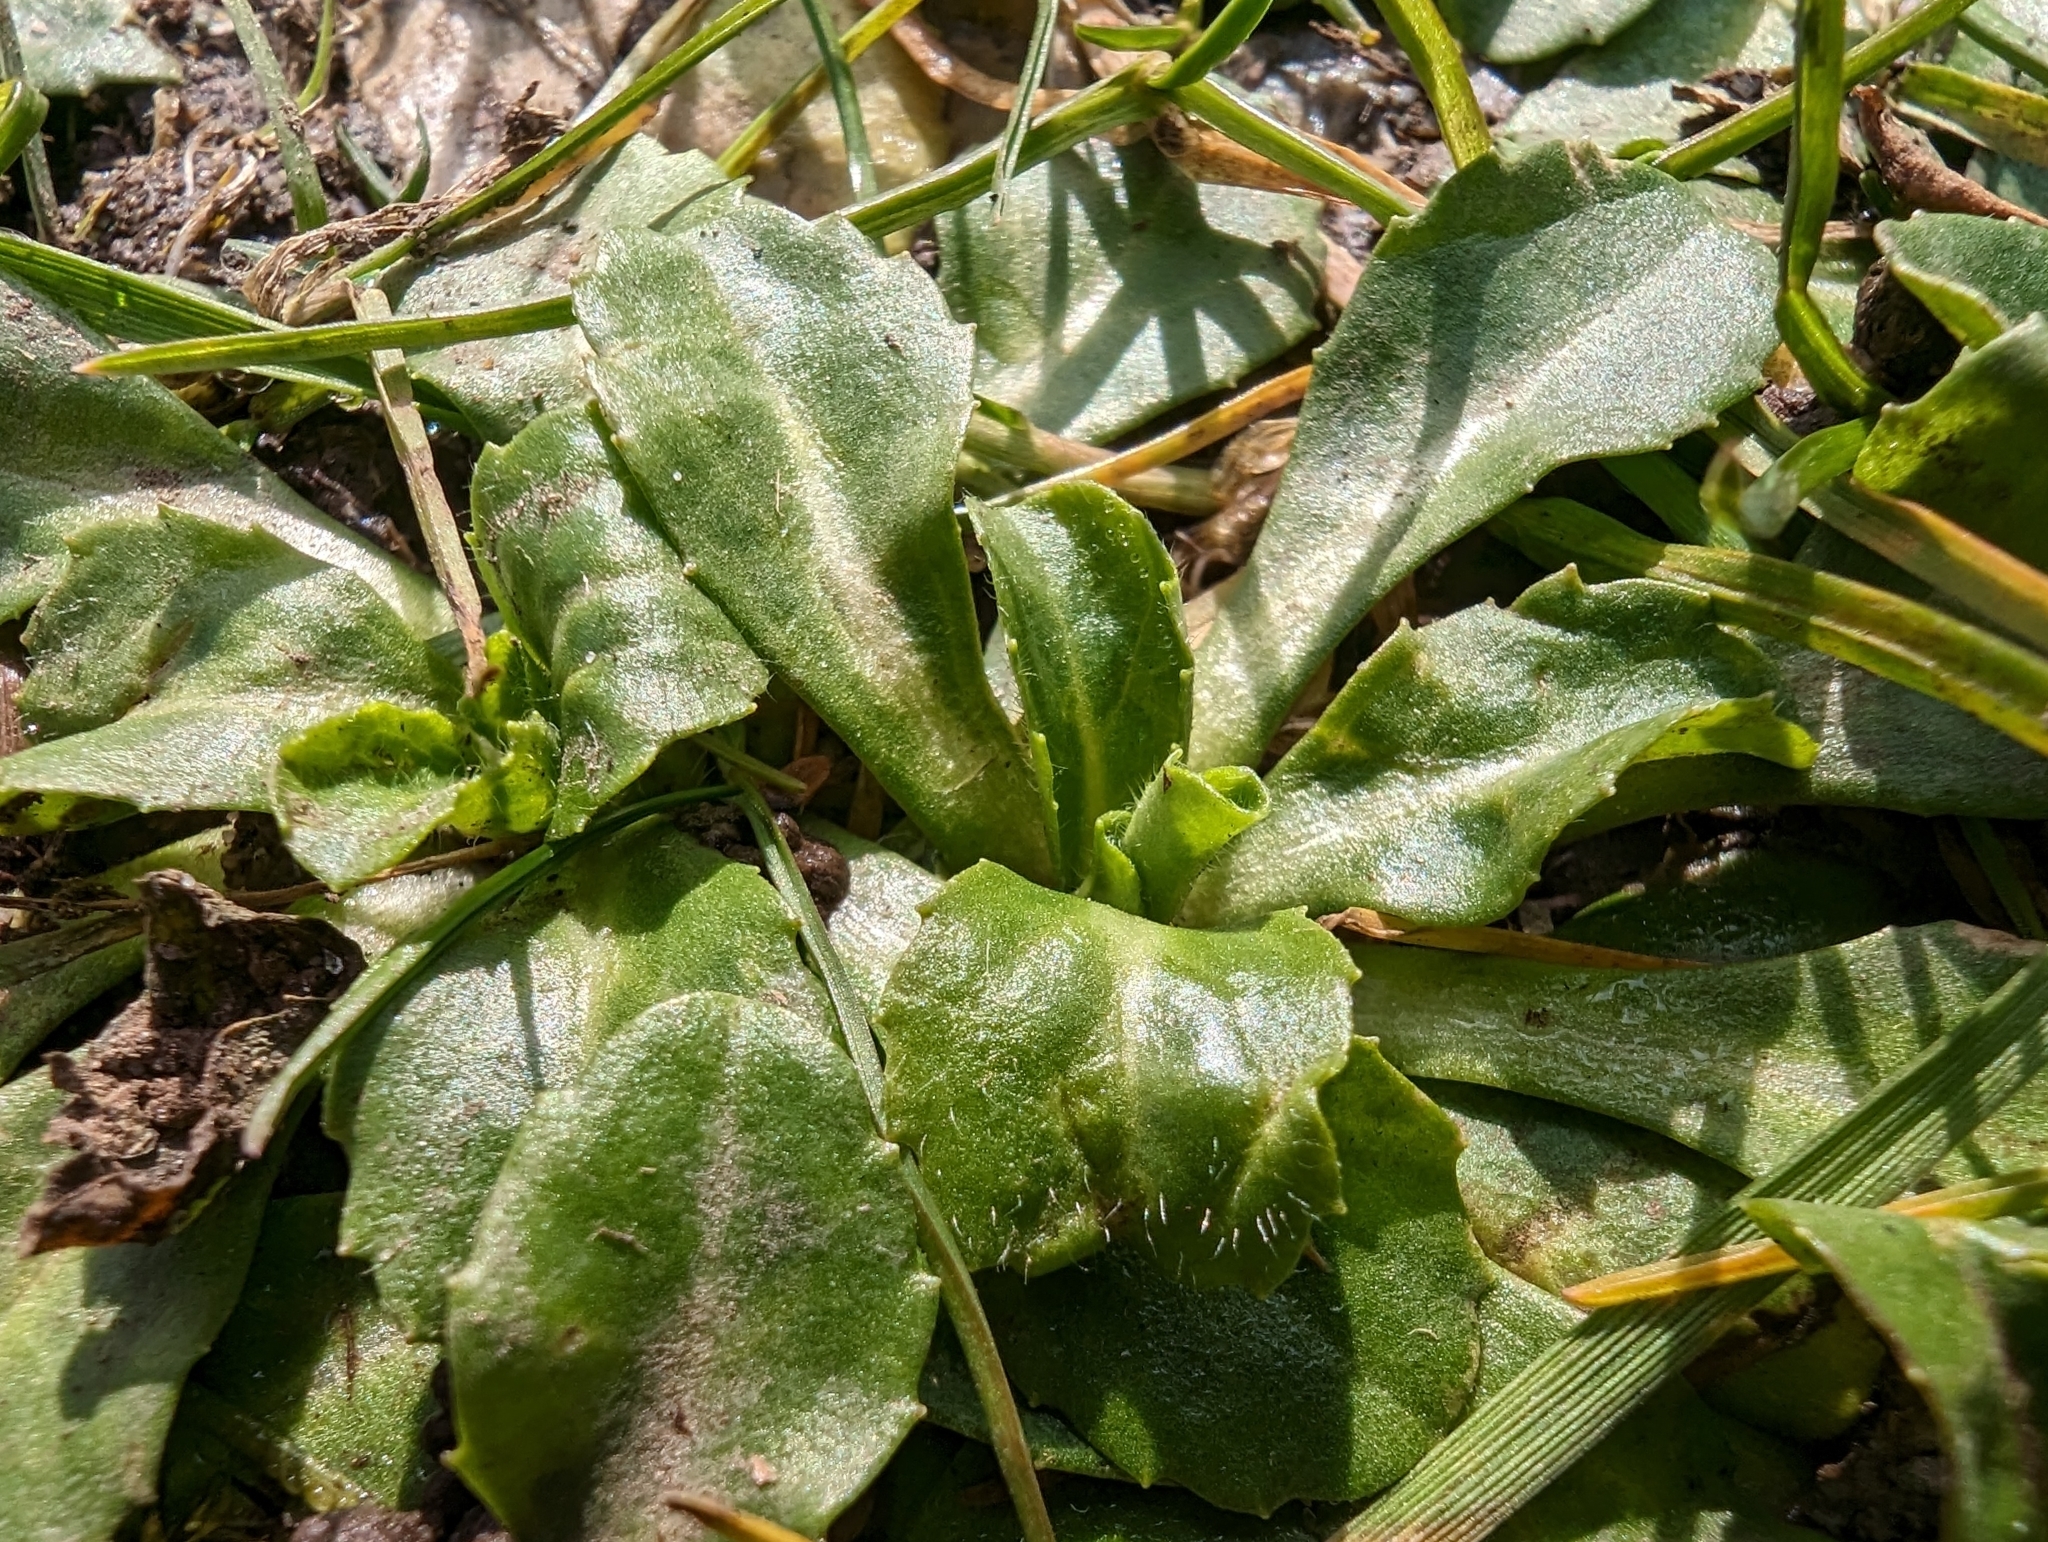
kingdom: Plantae
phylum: Tracheophyta
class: Magnoliopsida
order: Asterales
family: Asteraceae
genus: Bellis
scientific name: Bellis perennis
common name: Lawndaisy
